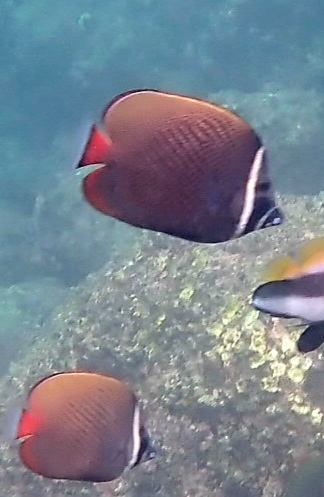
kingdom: Animalia
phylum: Chordata
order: Perciformes
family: Chaetodontidae
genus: Chaetodon
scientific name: Chaetodon collare
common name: Redtail butterflyfish
